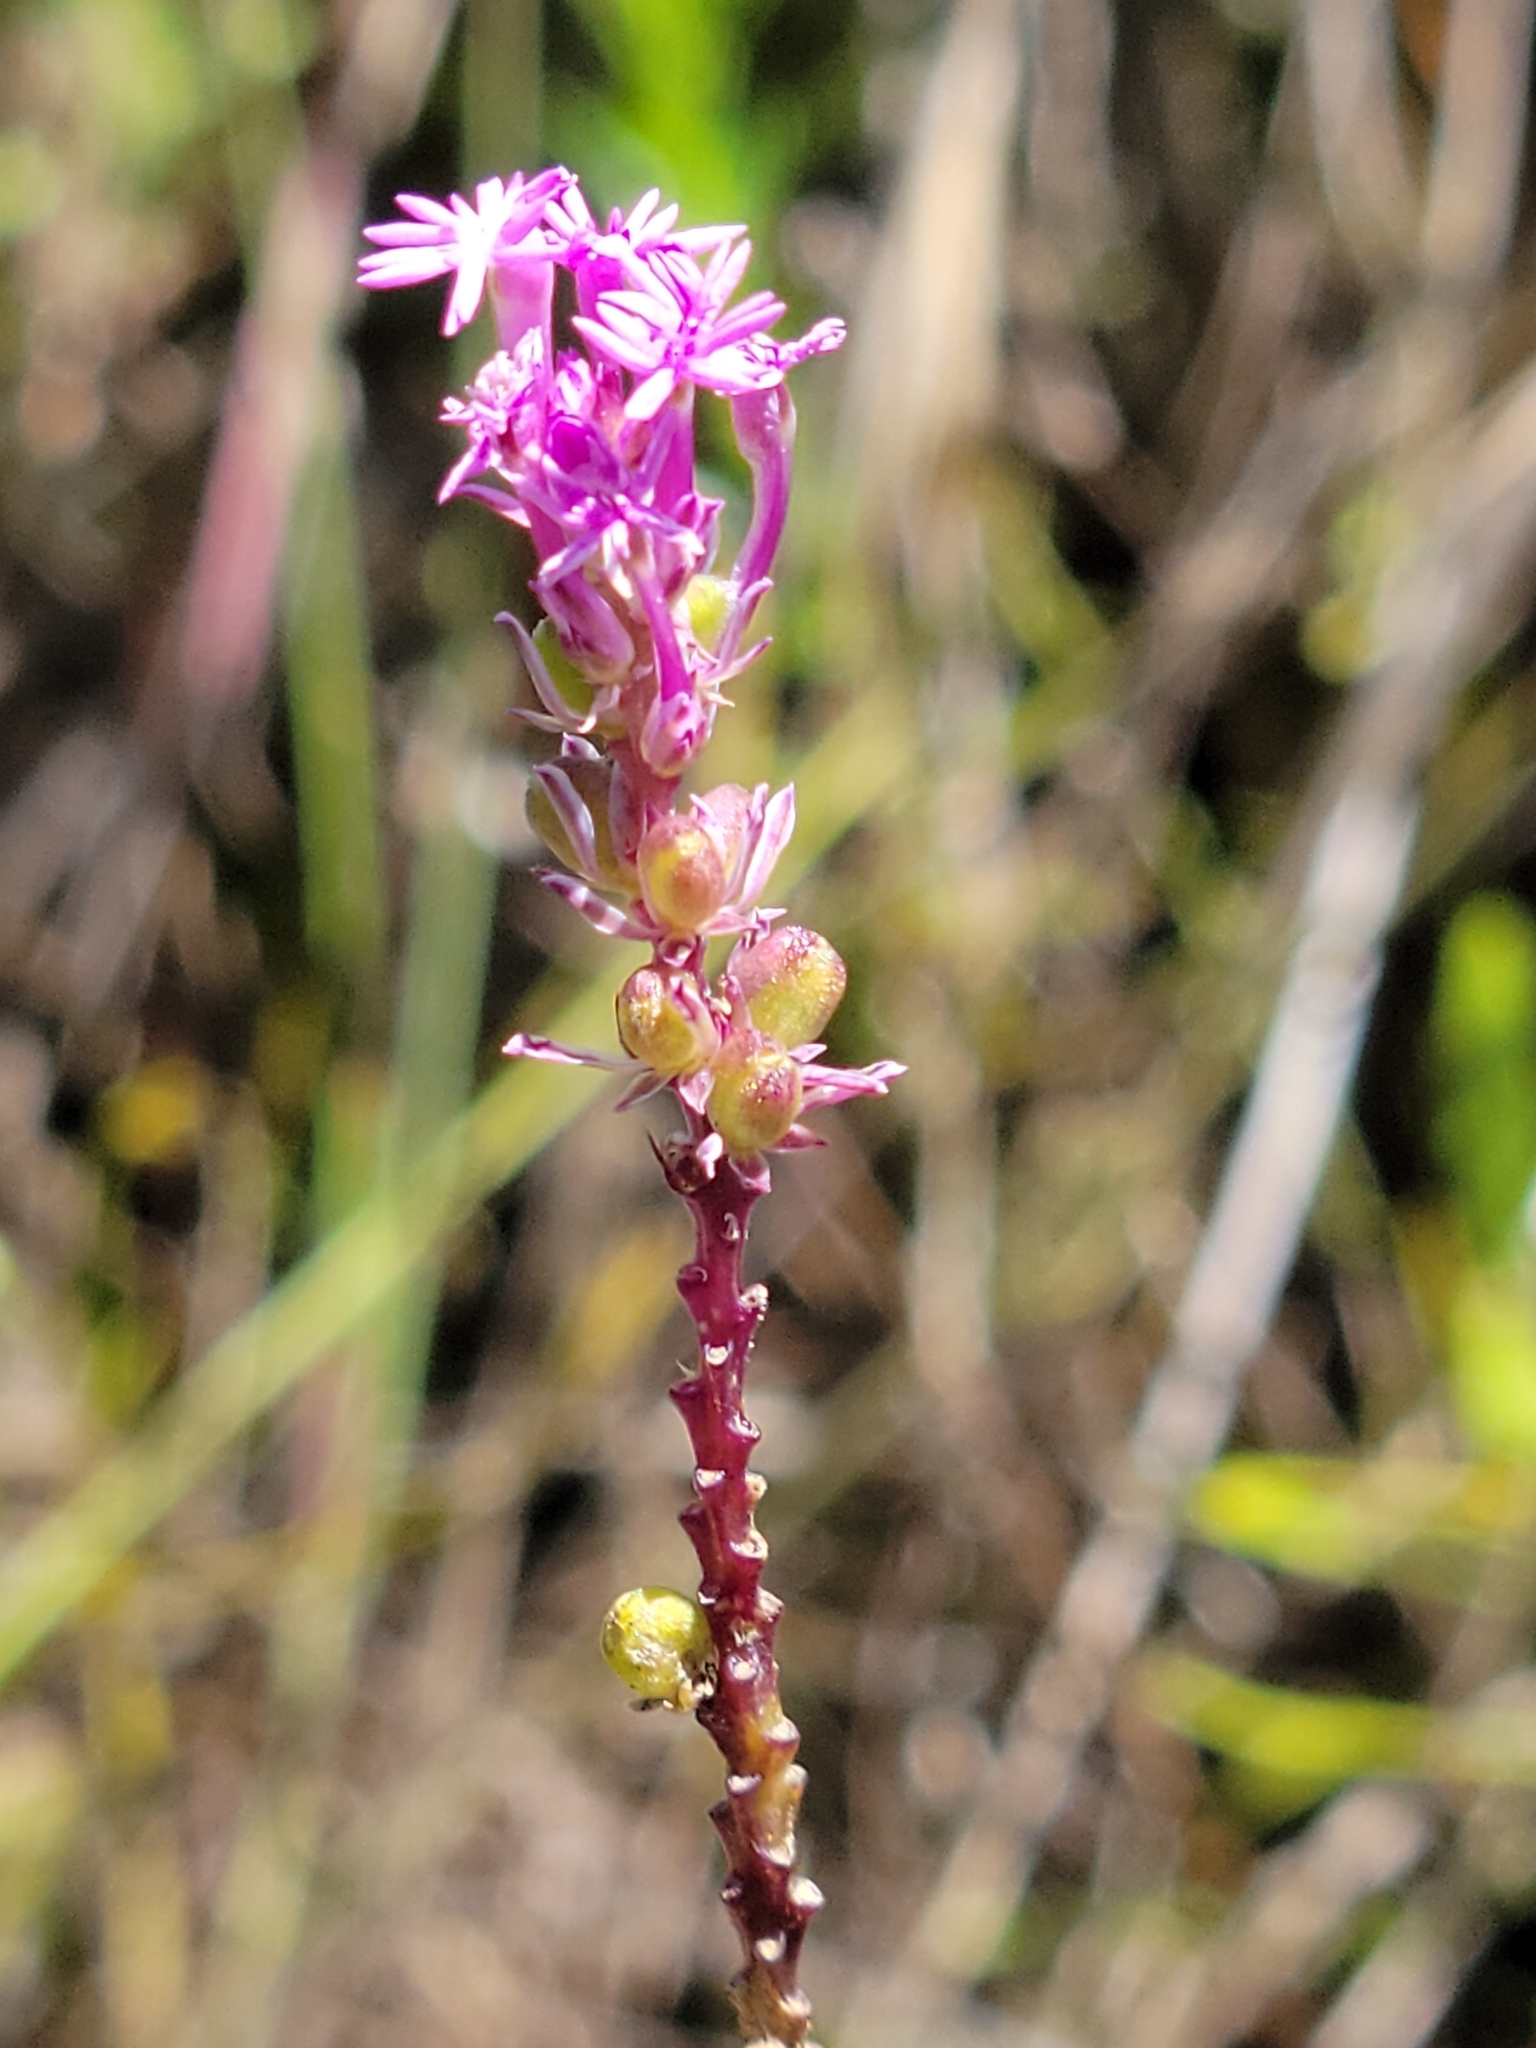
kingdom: Plantae
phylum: Tracheophyta
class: Magnoliopsida
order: Fabales
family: Polygalaceae
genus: Polygala
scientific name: Polygala incarnata
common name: Pink milkwort
